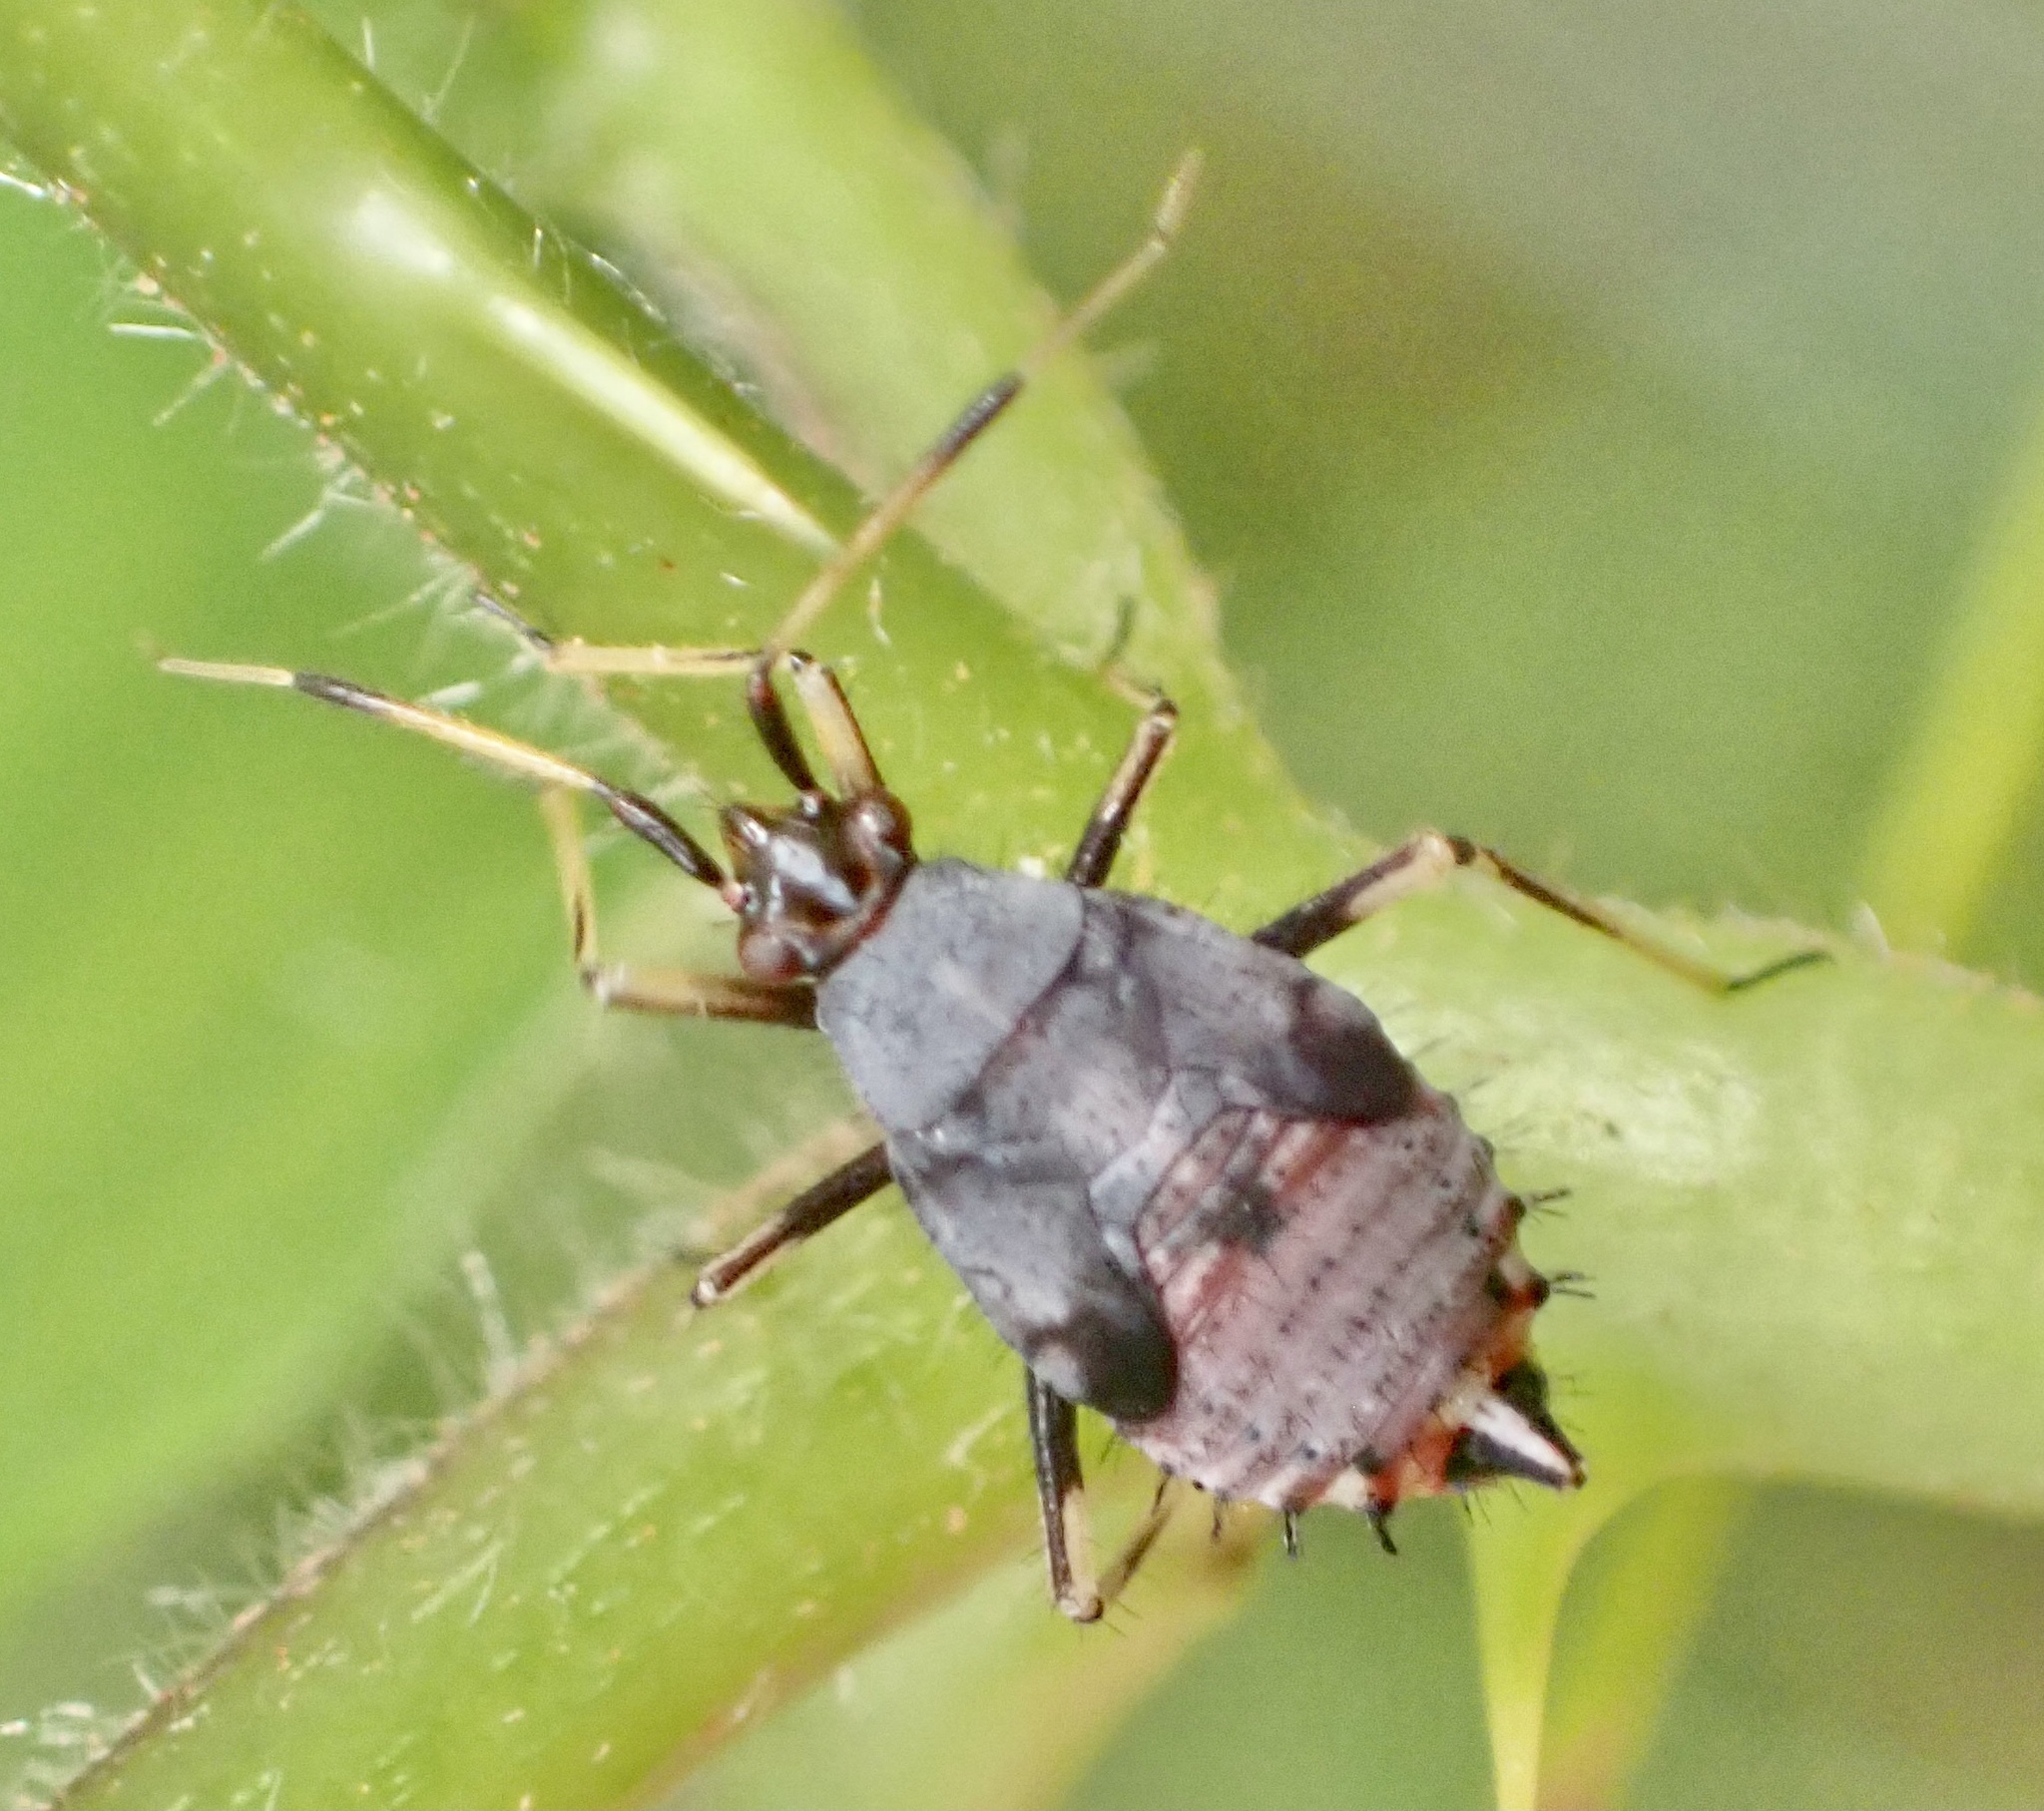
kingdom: Animalia
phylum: Arthropoda
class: Insecta
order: Hemiptera
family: Miridae
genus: Deraeocoris
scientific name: Deraeocoris ruber
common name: Plant bug
